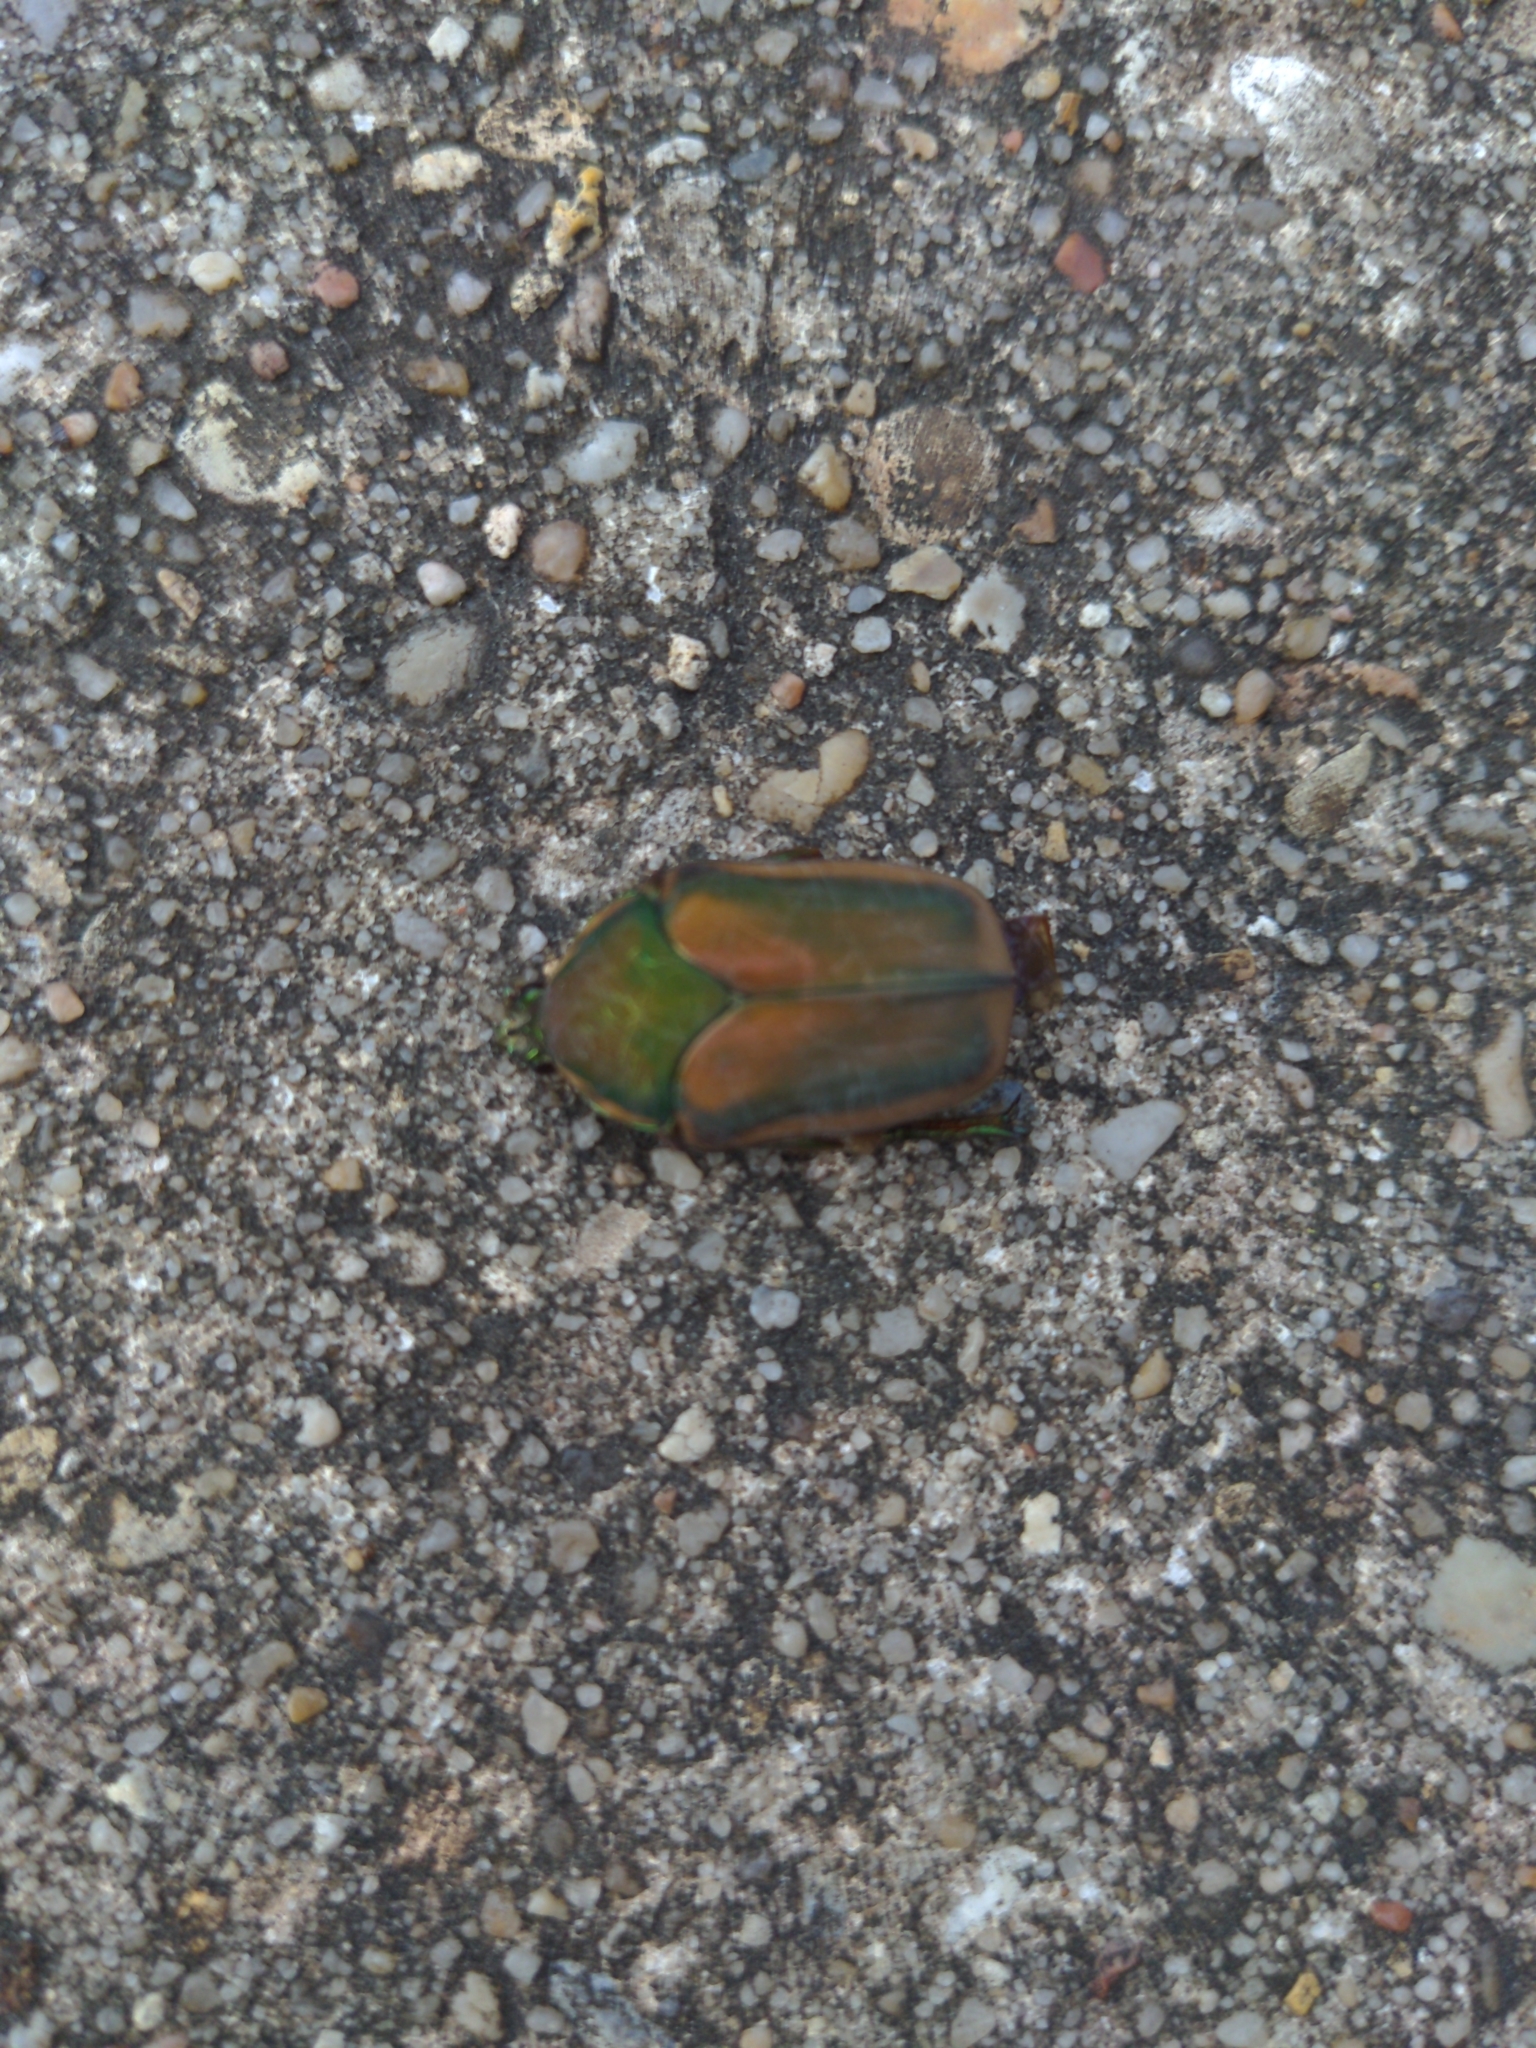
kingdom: Animalia
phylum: Arthropoda
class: Insecta
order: Coleoptera
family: Scarabaeidae
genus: Cotinis
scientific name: Cotinis nitida
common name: Common green june beetle
